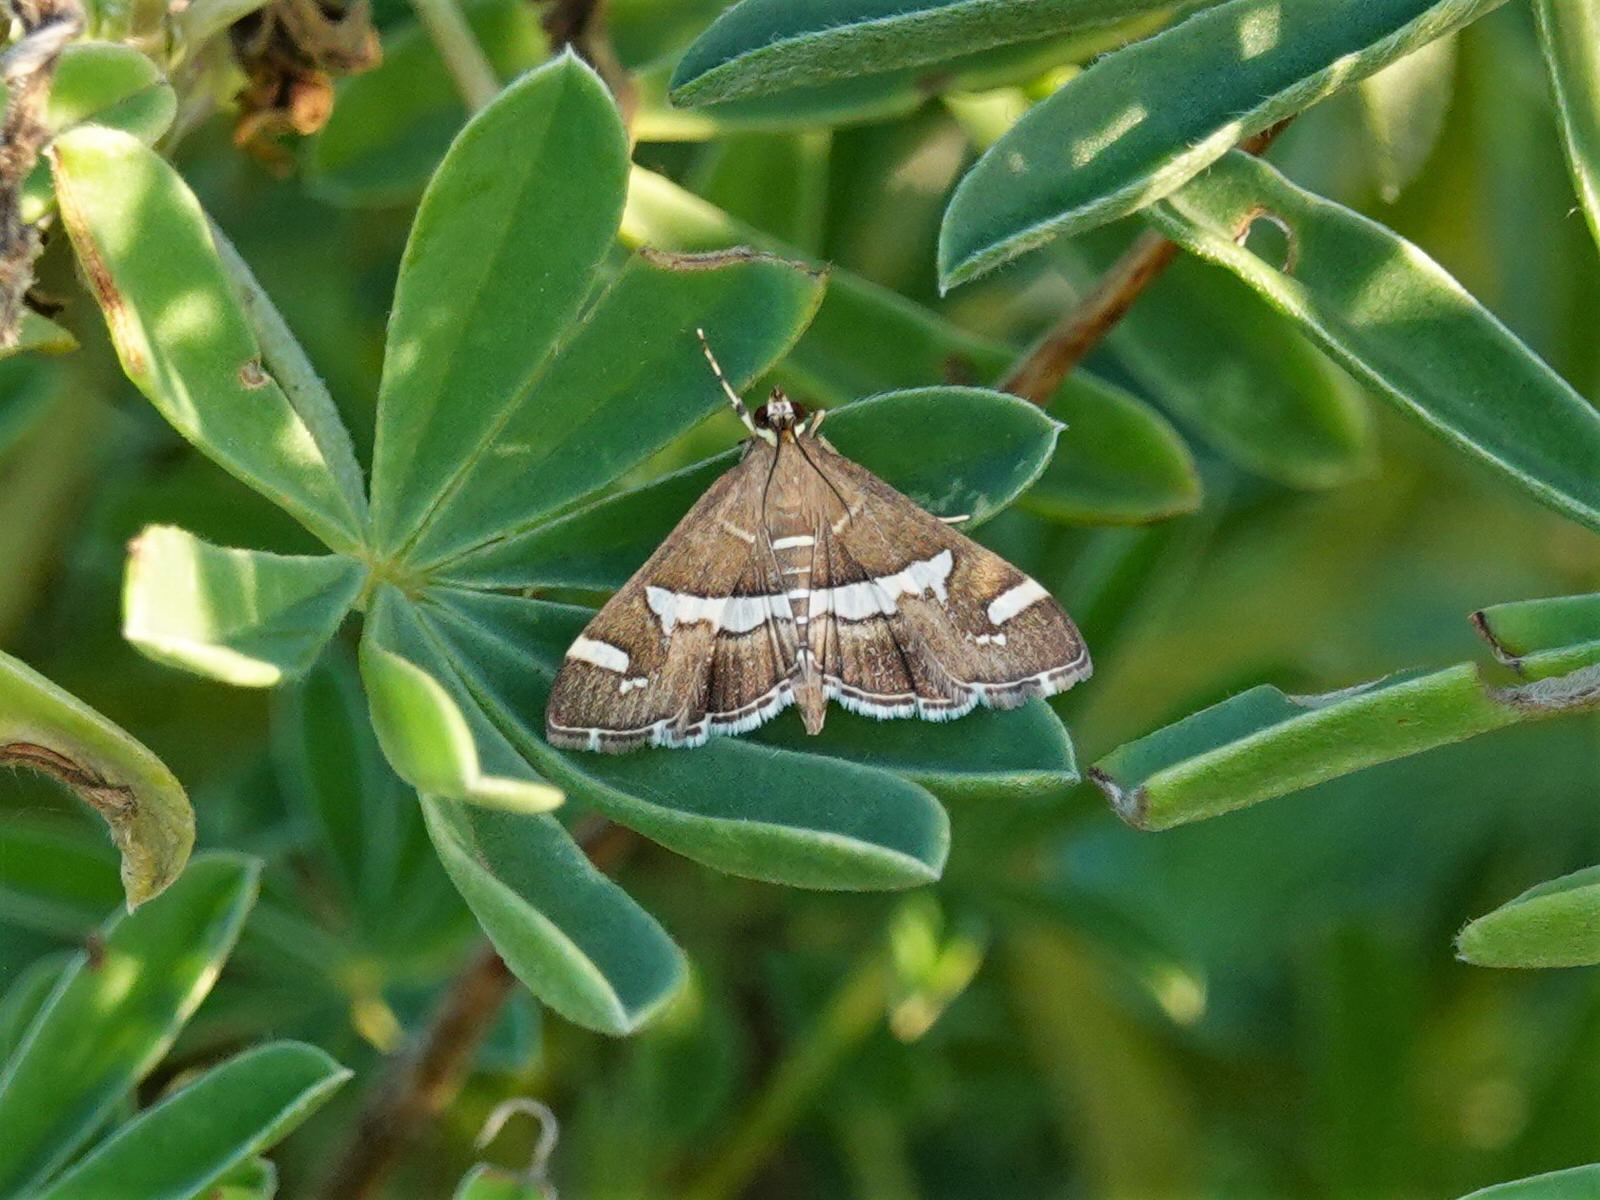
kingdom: Animalia
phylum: Arthropoda
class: Insecta
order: Lepidoptera
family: Crambidae
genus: Spoladea
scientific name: Spoladea recurvalis
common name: Beet webworm moth
